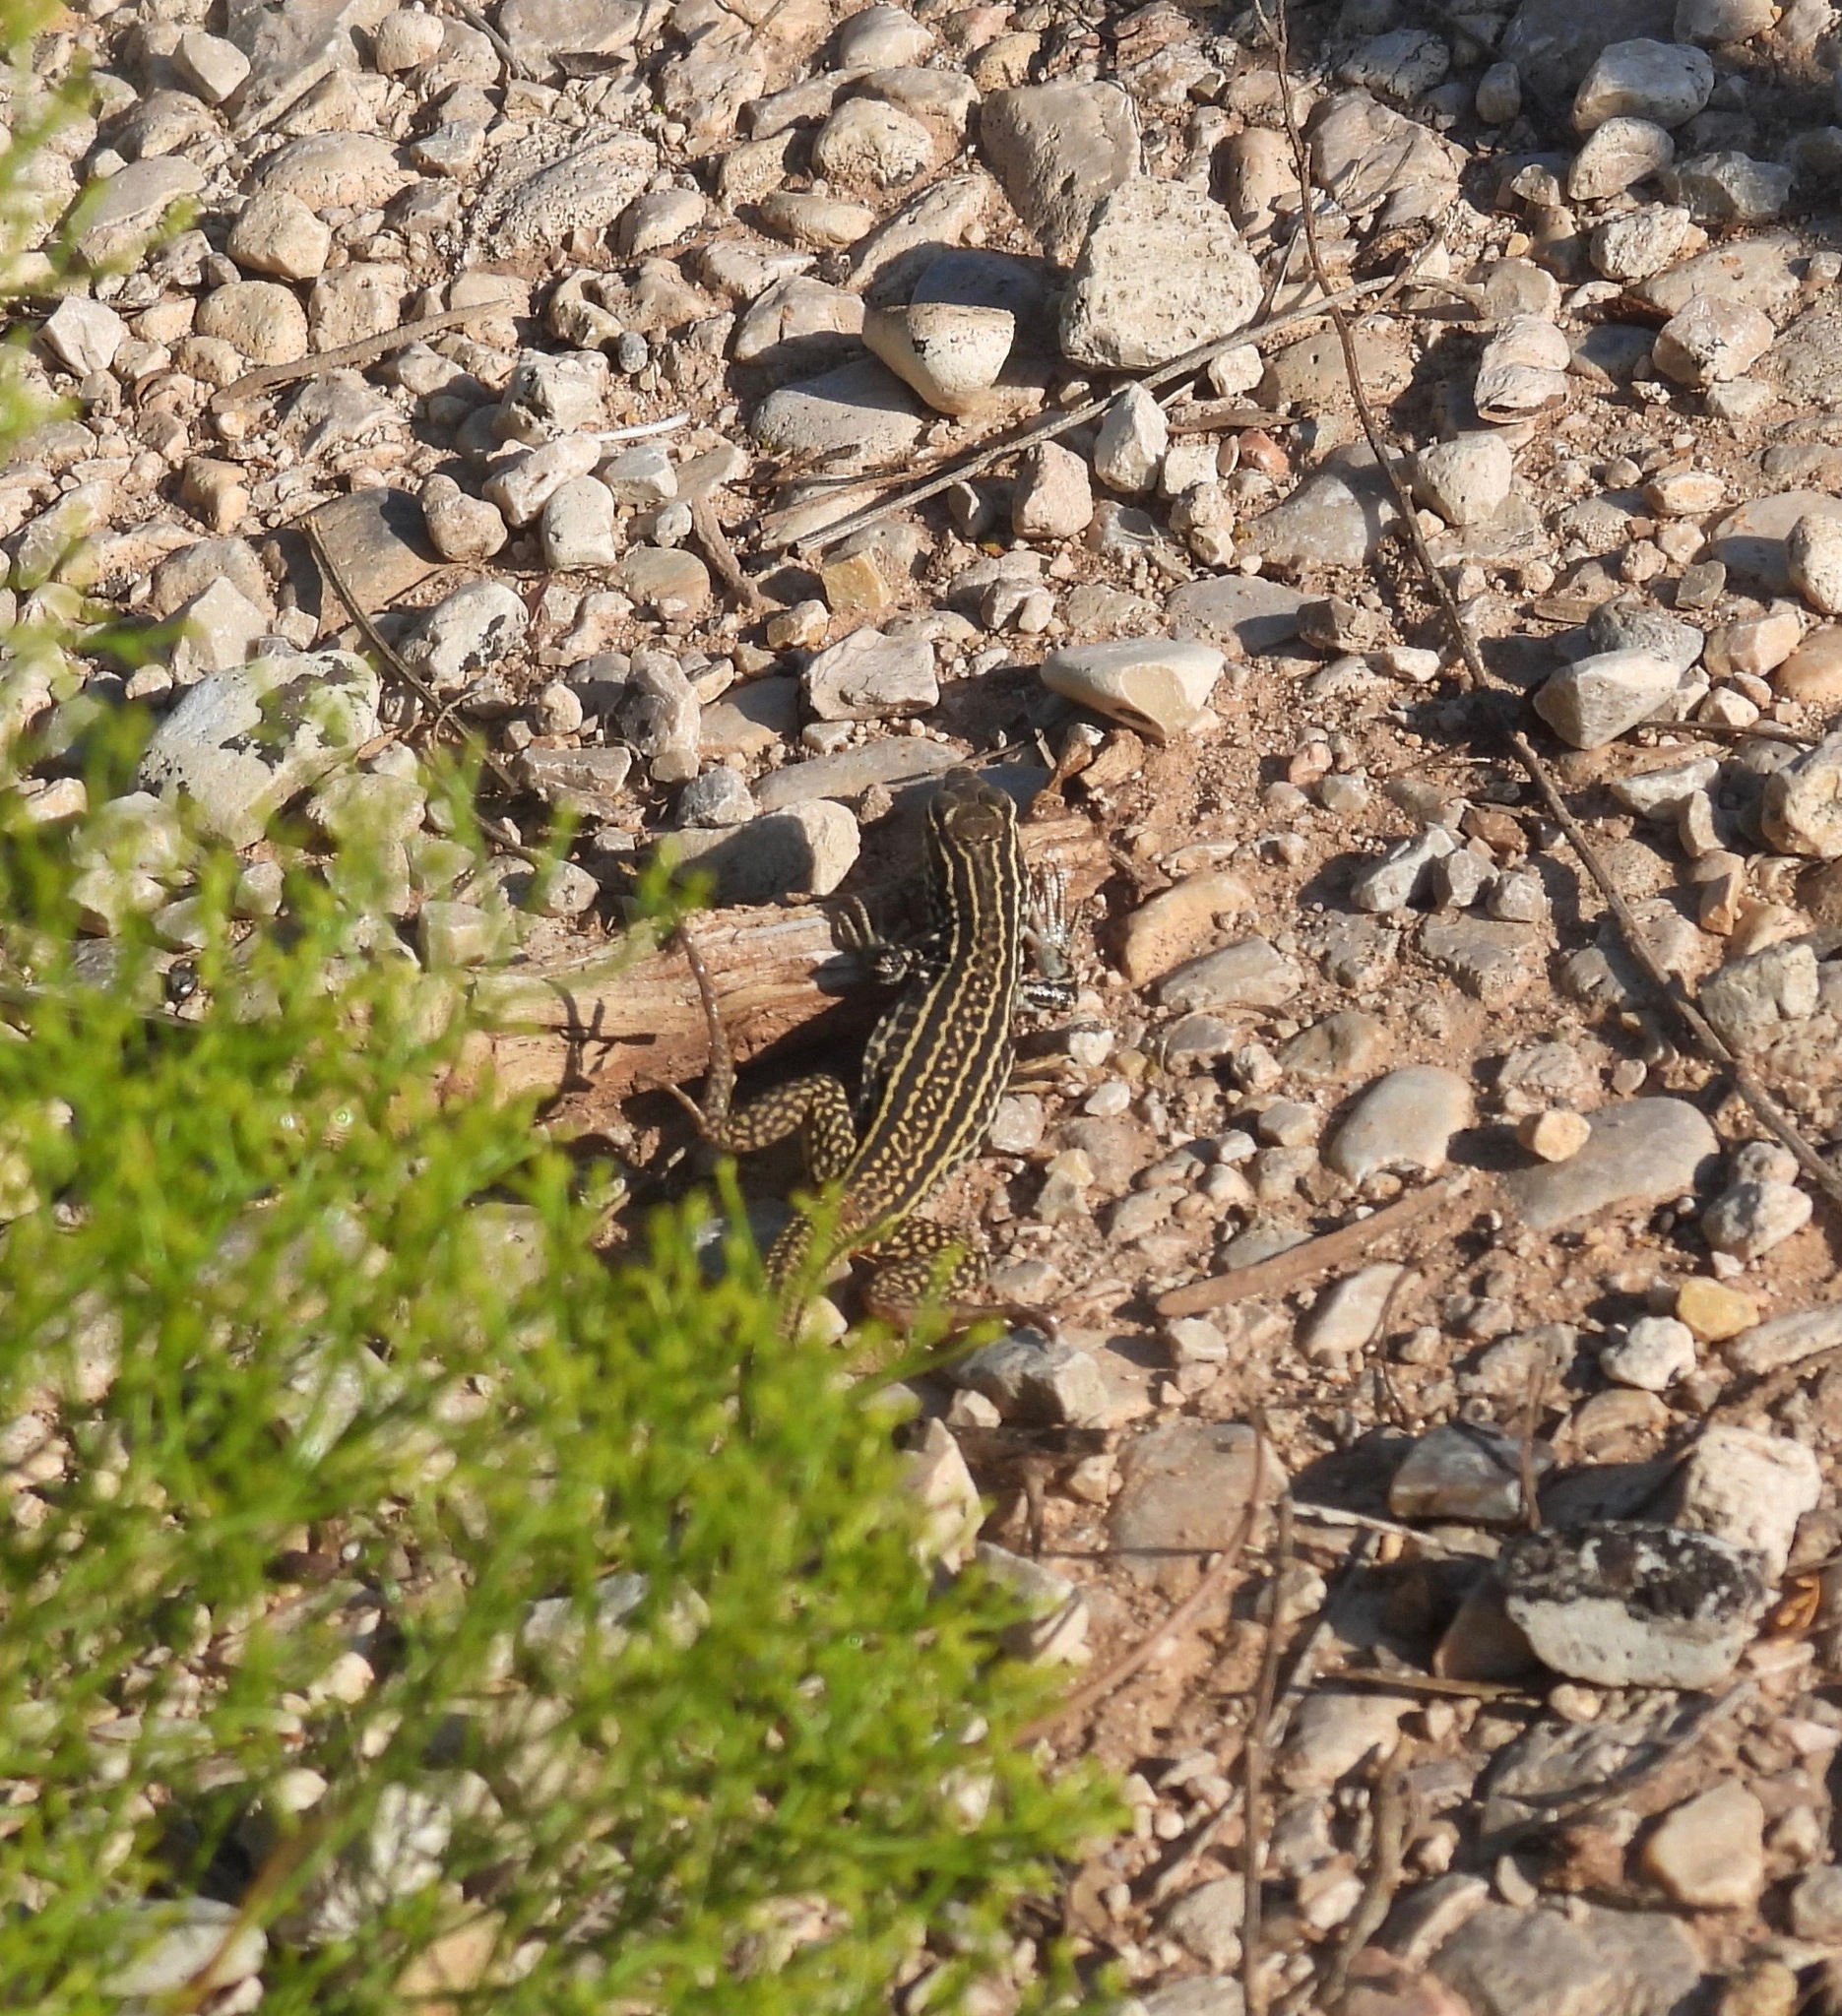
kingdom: Animalia
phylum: Chordata
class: Squamata
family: Teiidae
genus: Aspidoscelis
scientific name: Aspidoscelis tesselatus
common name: Common checkered whiptail [tesselata]
